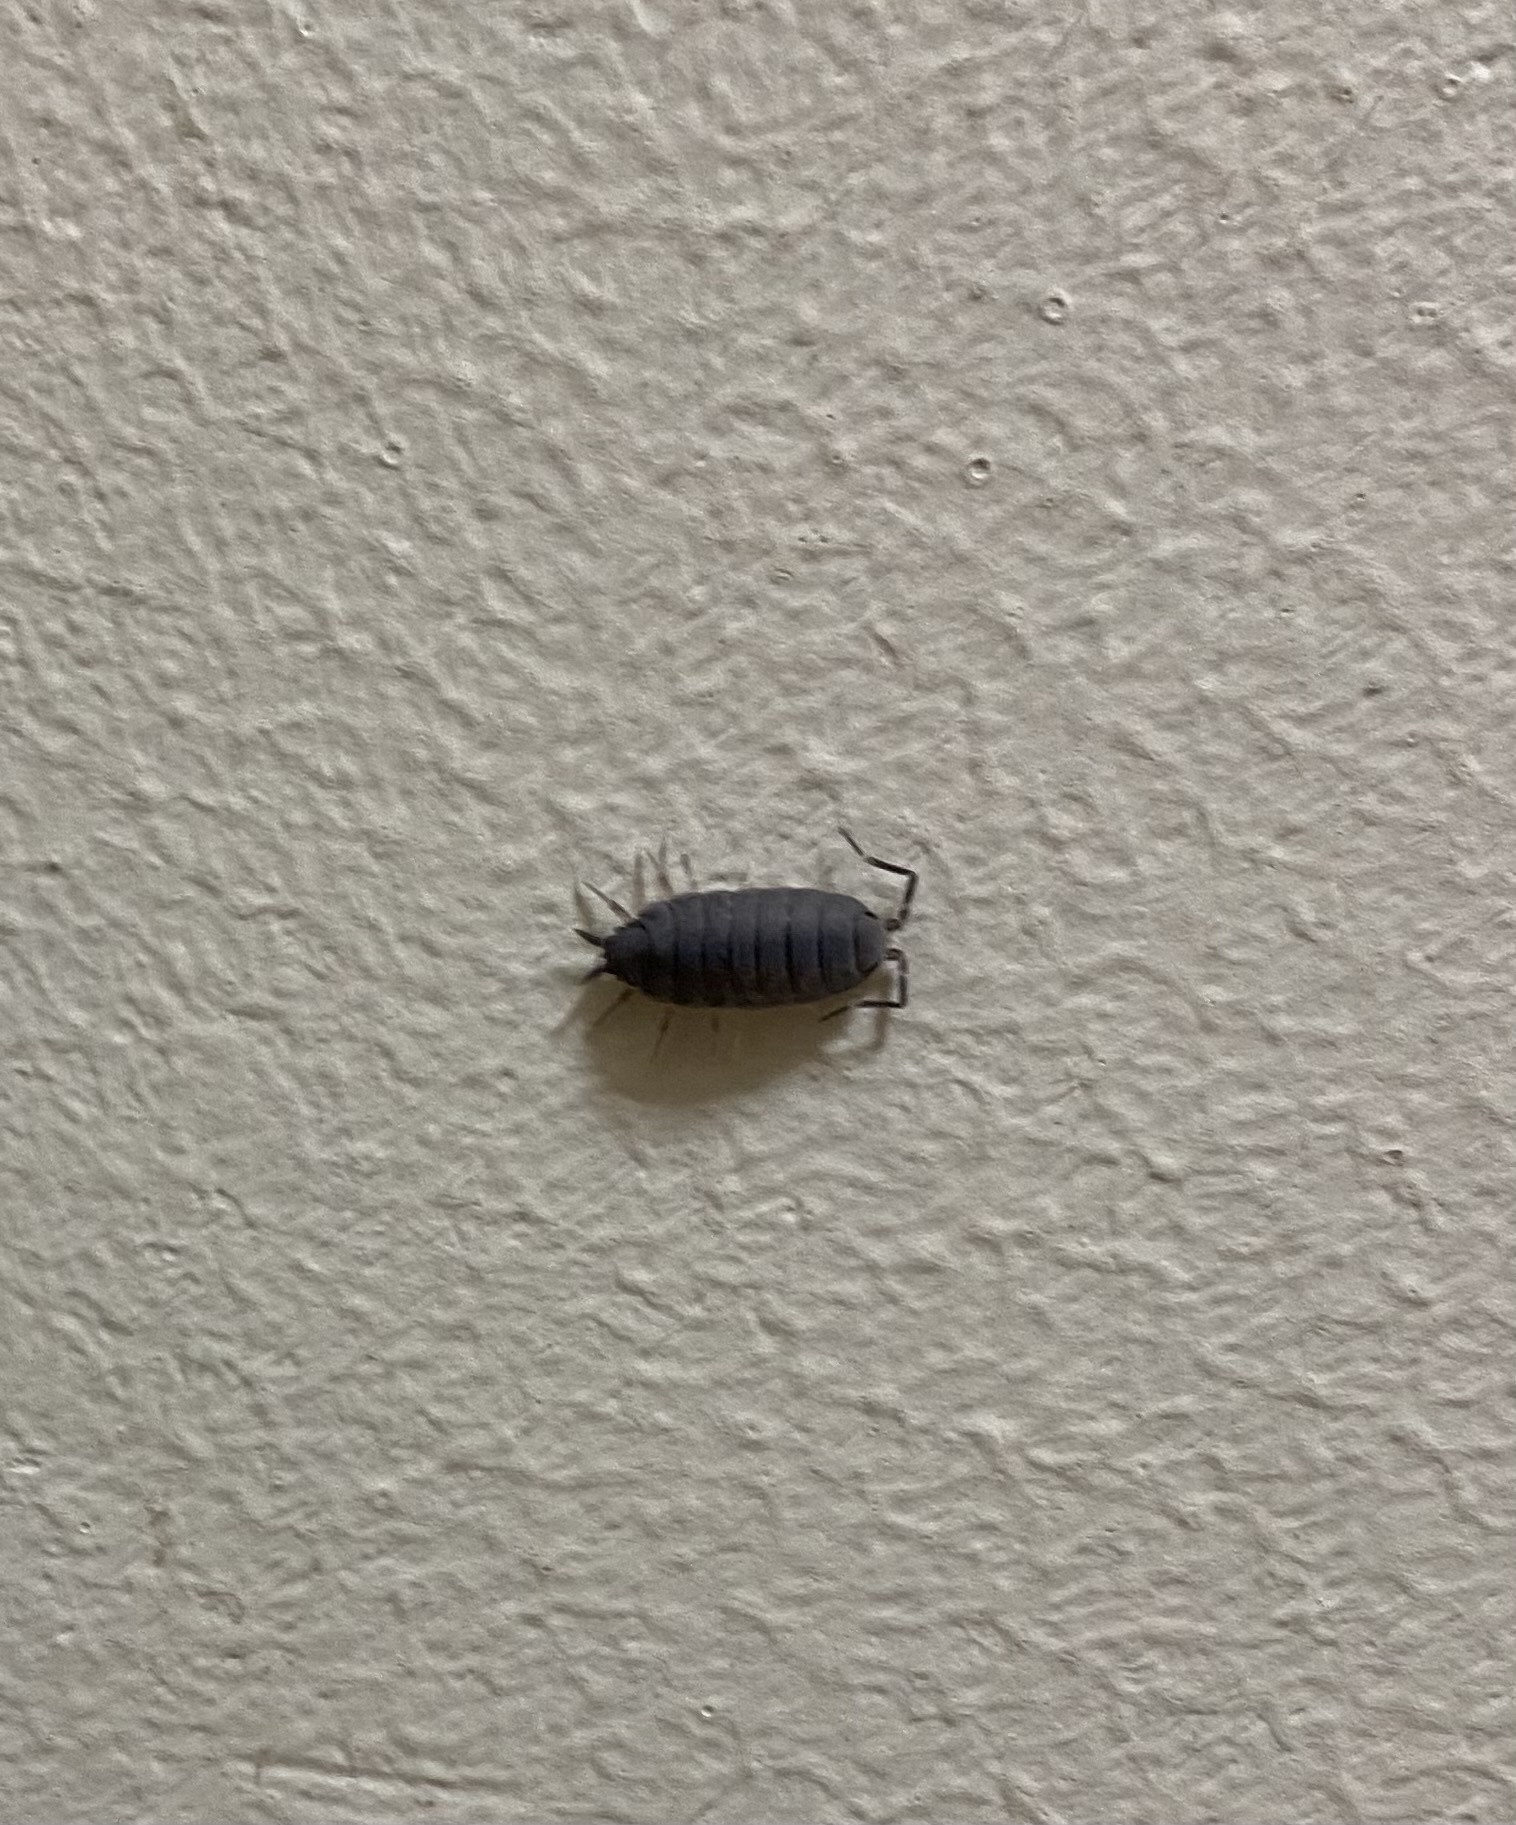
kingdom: Animalia
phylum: Arthropoda
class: Malacostraca
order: Isopoda
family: Porcellionidae
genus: Porcellionides
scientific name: Porcellionides
